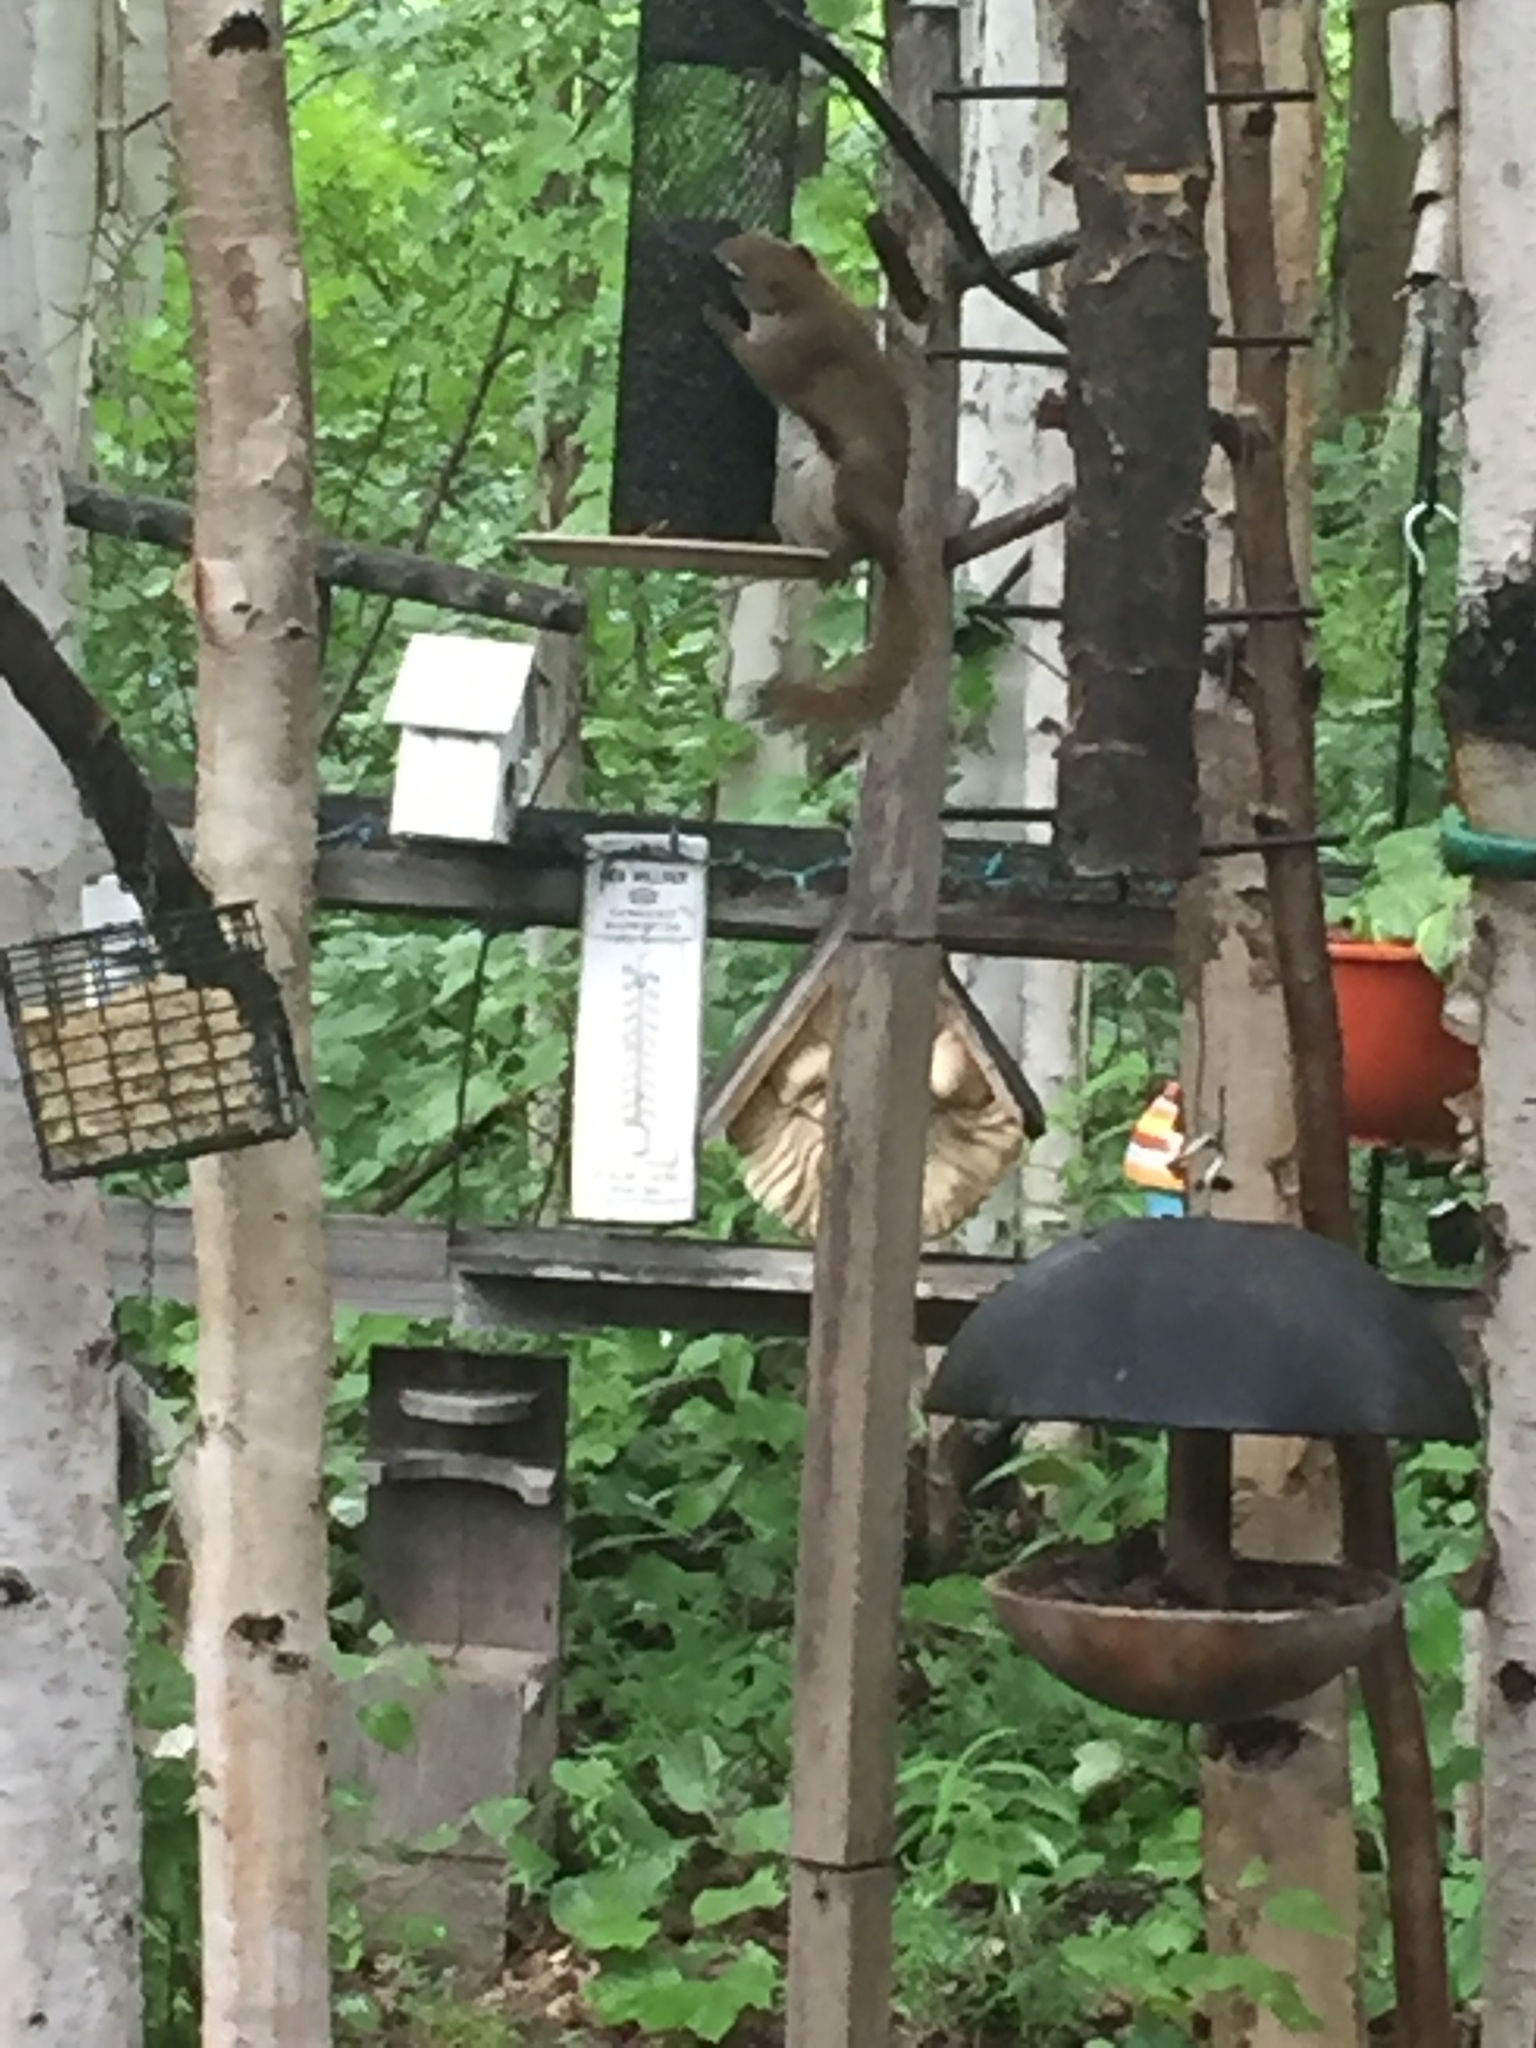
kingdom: Animalia
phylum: Chordata
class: Mammalia
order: Rodentia
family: Sciuridae
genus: Tamiasciurus
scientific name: Tamiasciurus hudsonicus
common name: Red squirrel
